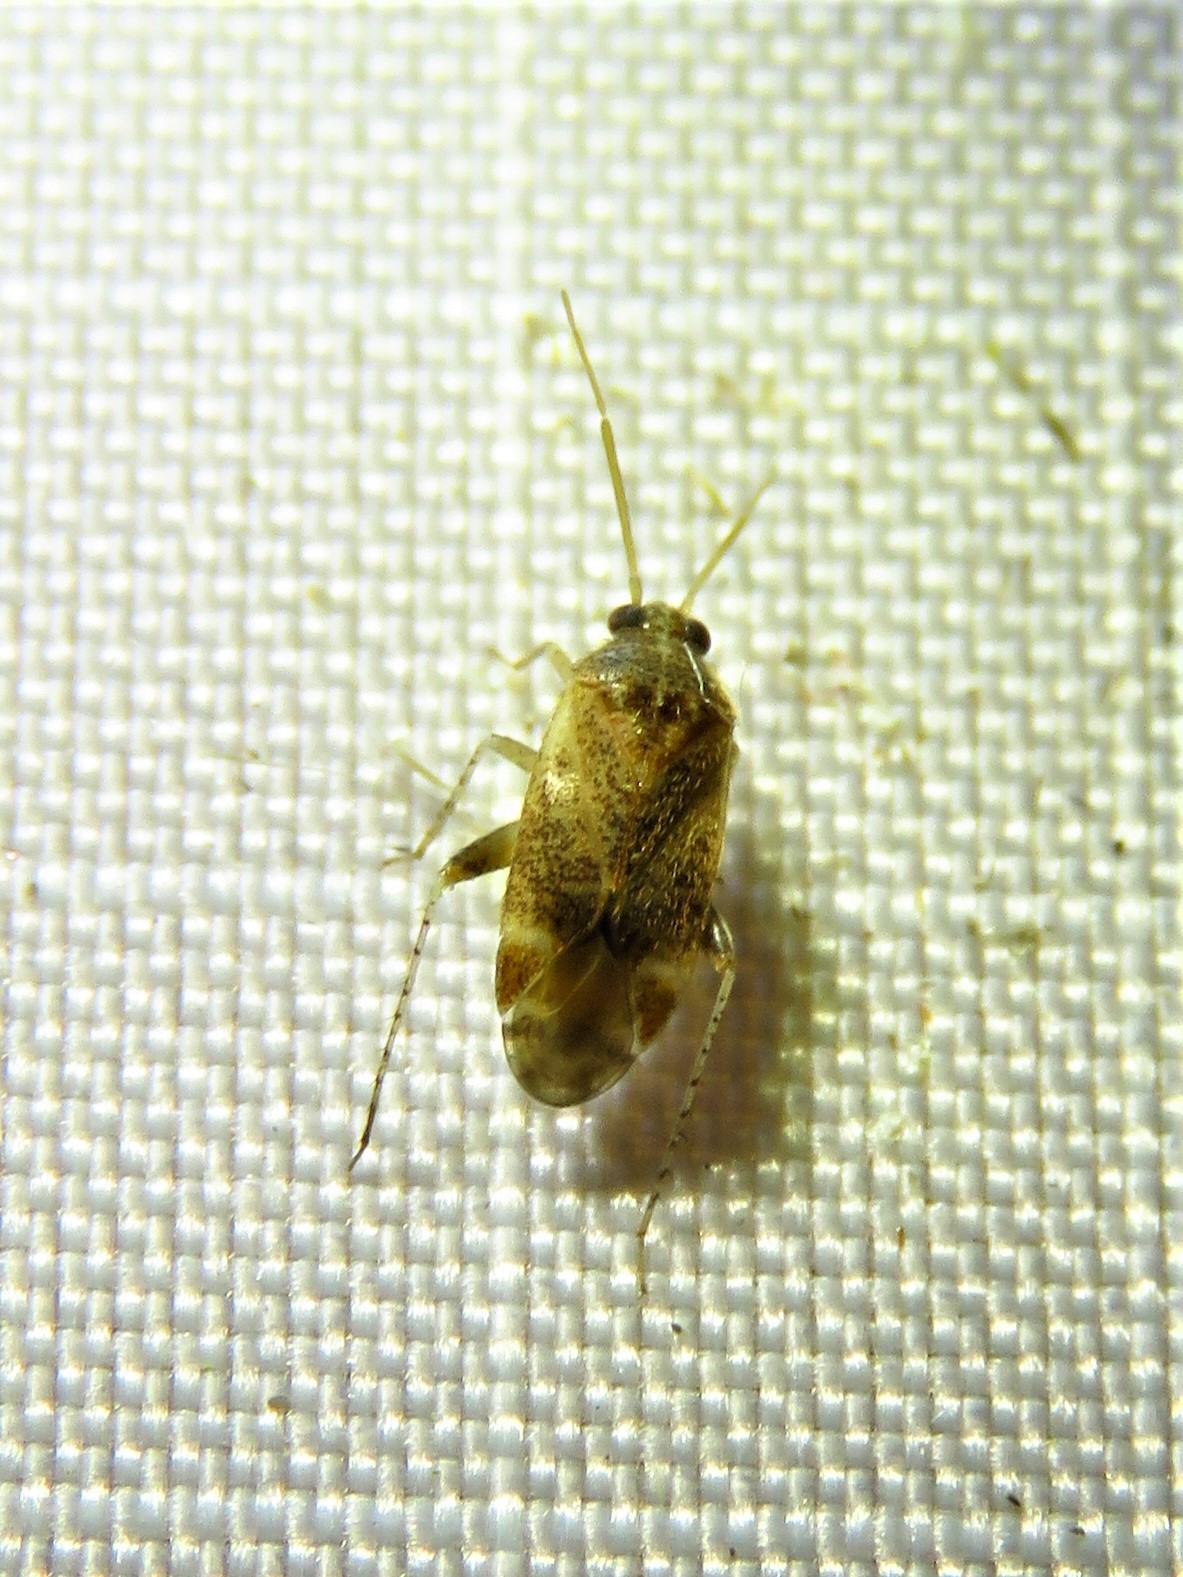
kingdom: Animalia
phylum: Arthropoda
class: Insecta
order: Hemiptera
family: Miridae
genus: Hamatophylus
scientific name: Hamatophylus guttulosus
